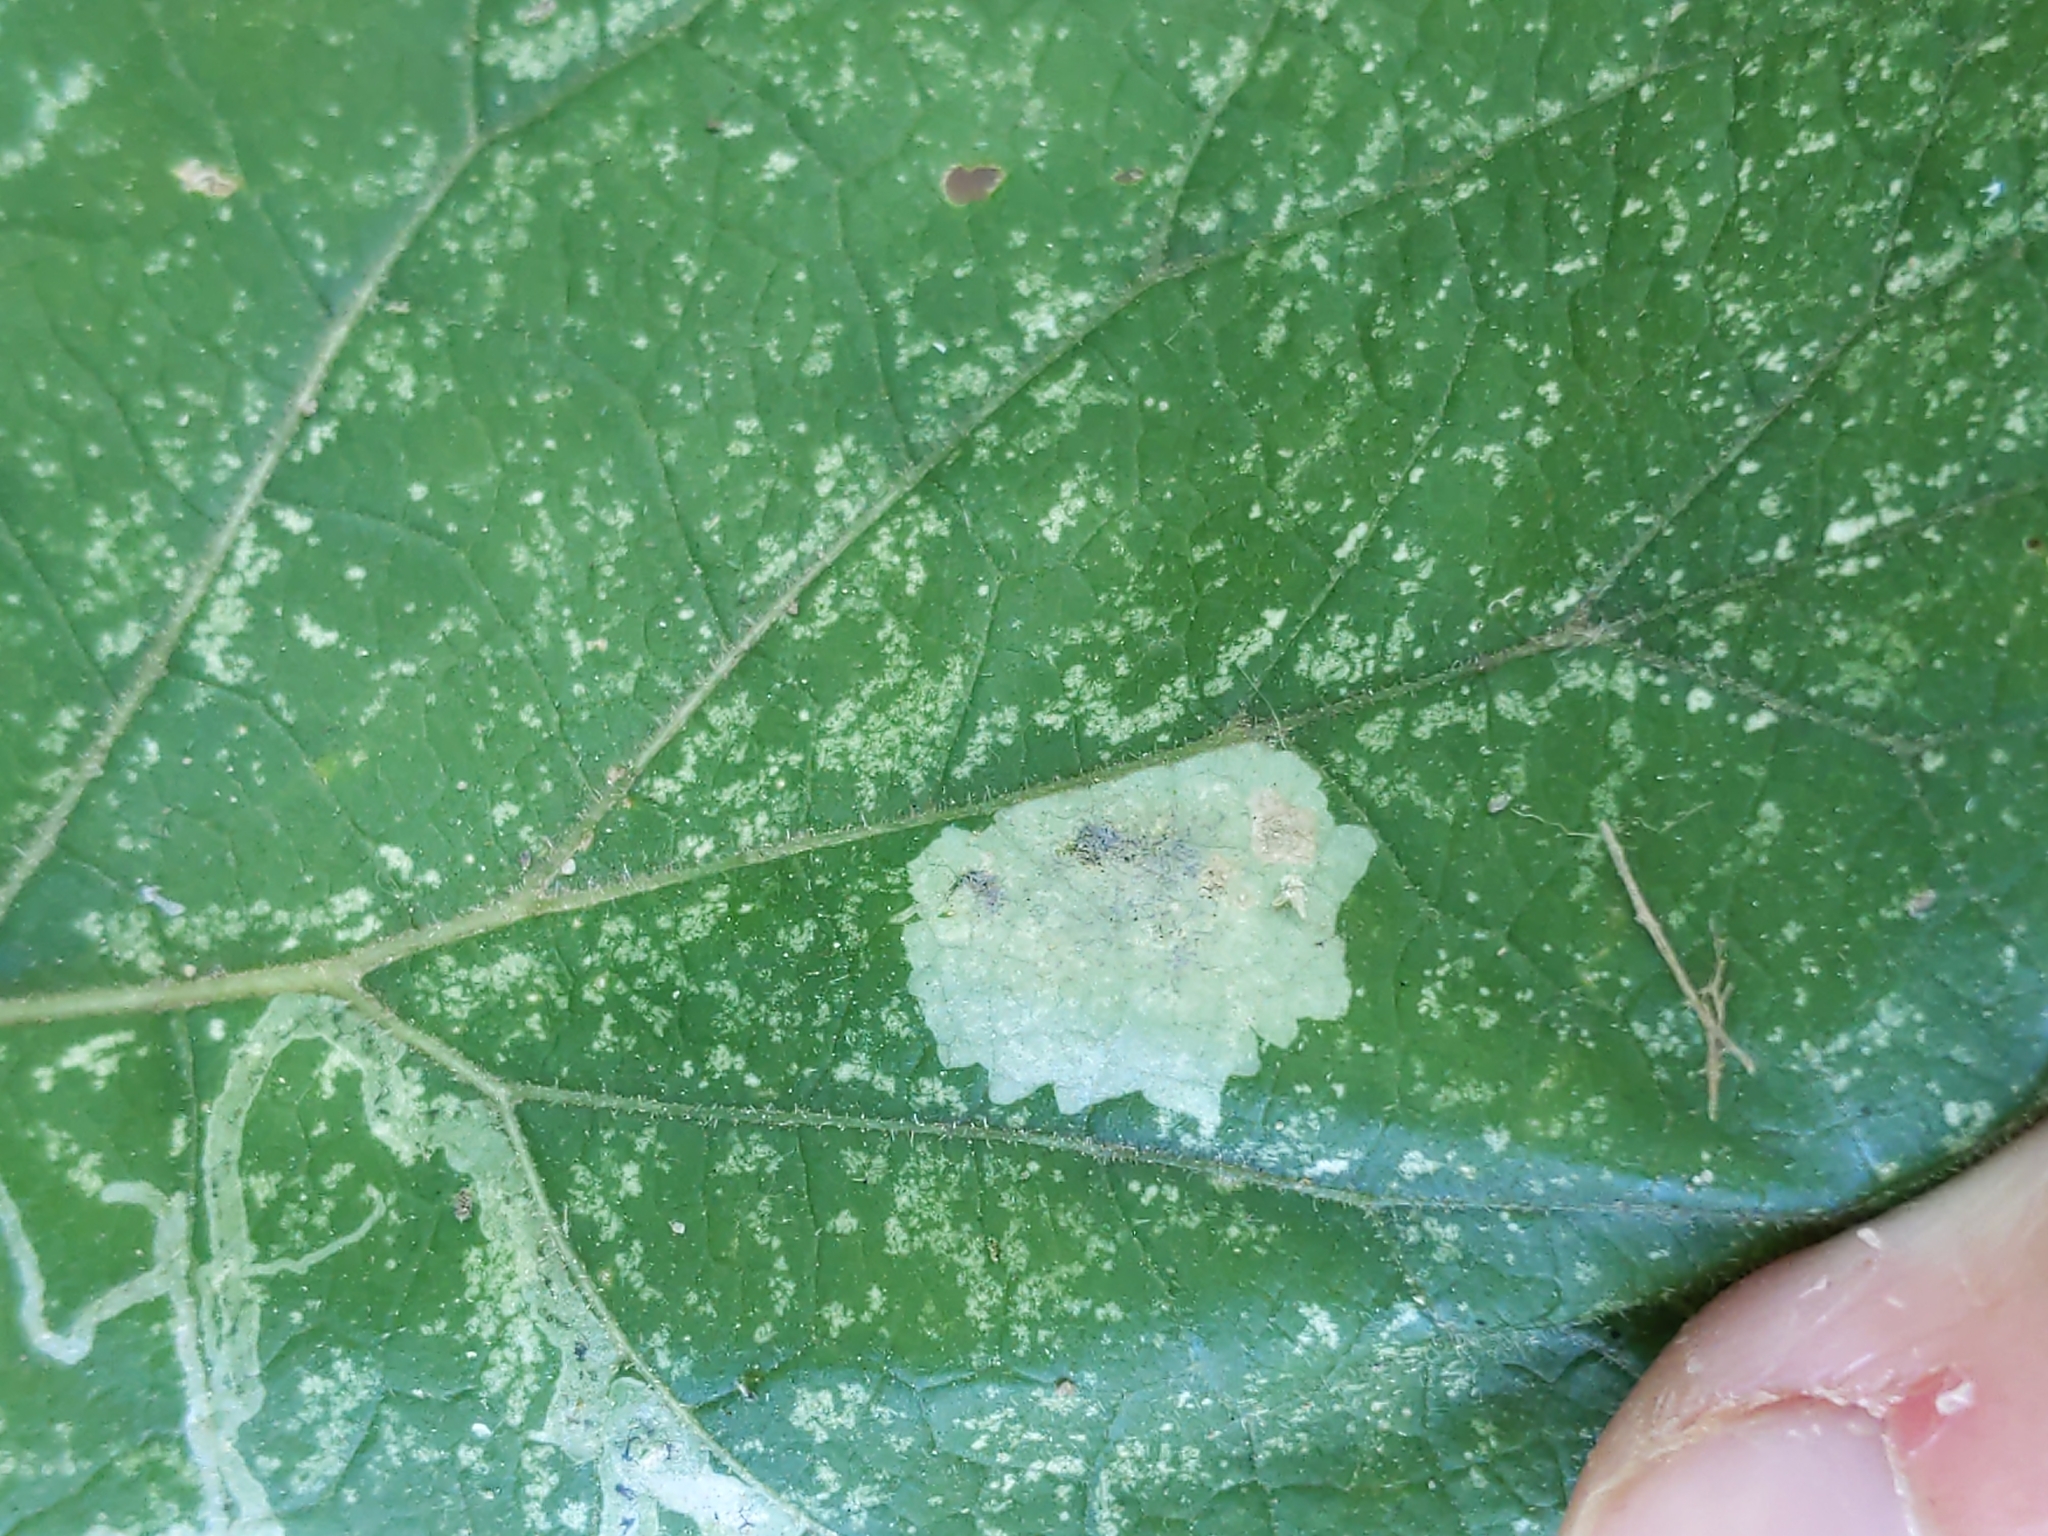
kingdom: Animalia
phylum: Arthropoda
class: Insecta
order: Diptera
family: Agromyzidae
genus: Calycomyza
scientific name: Calycomyza flavinotum
